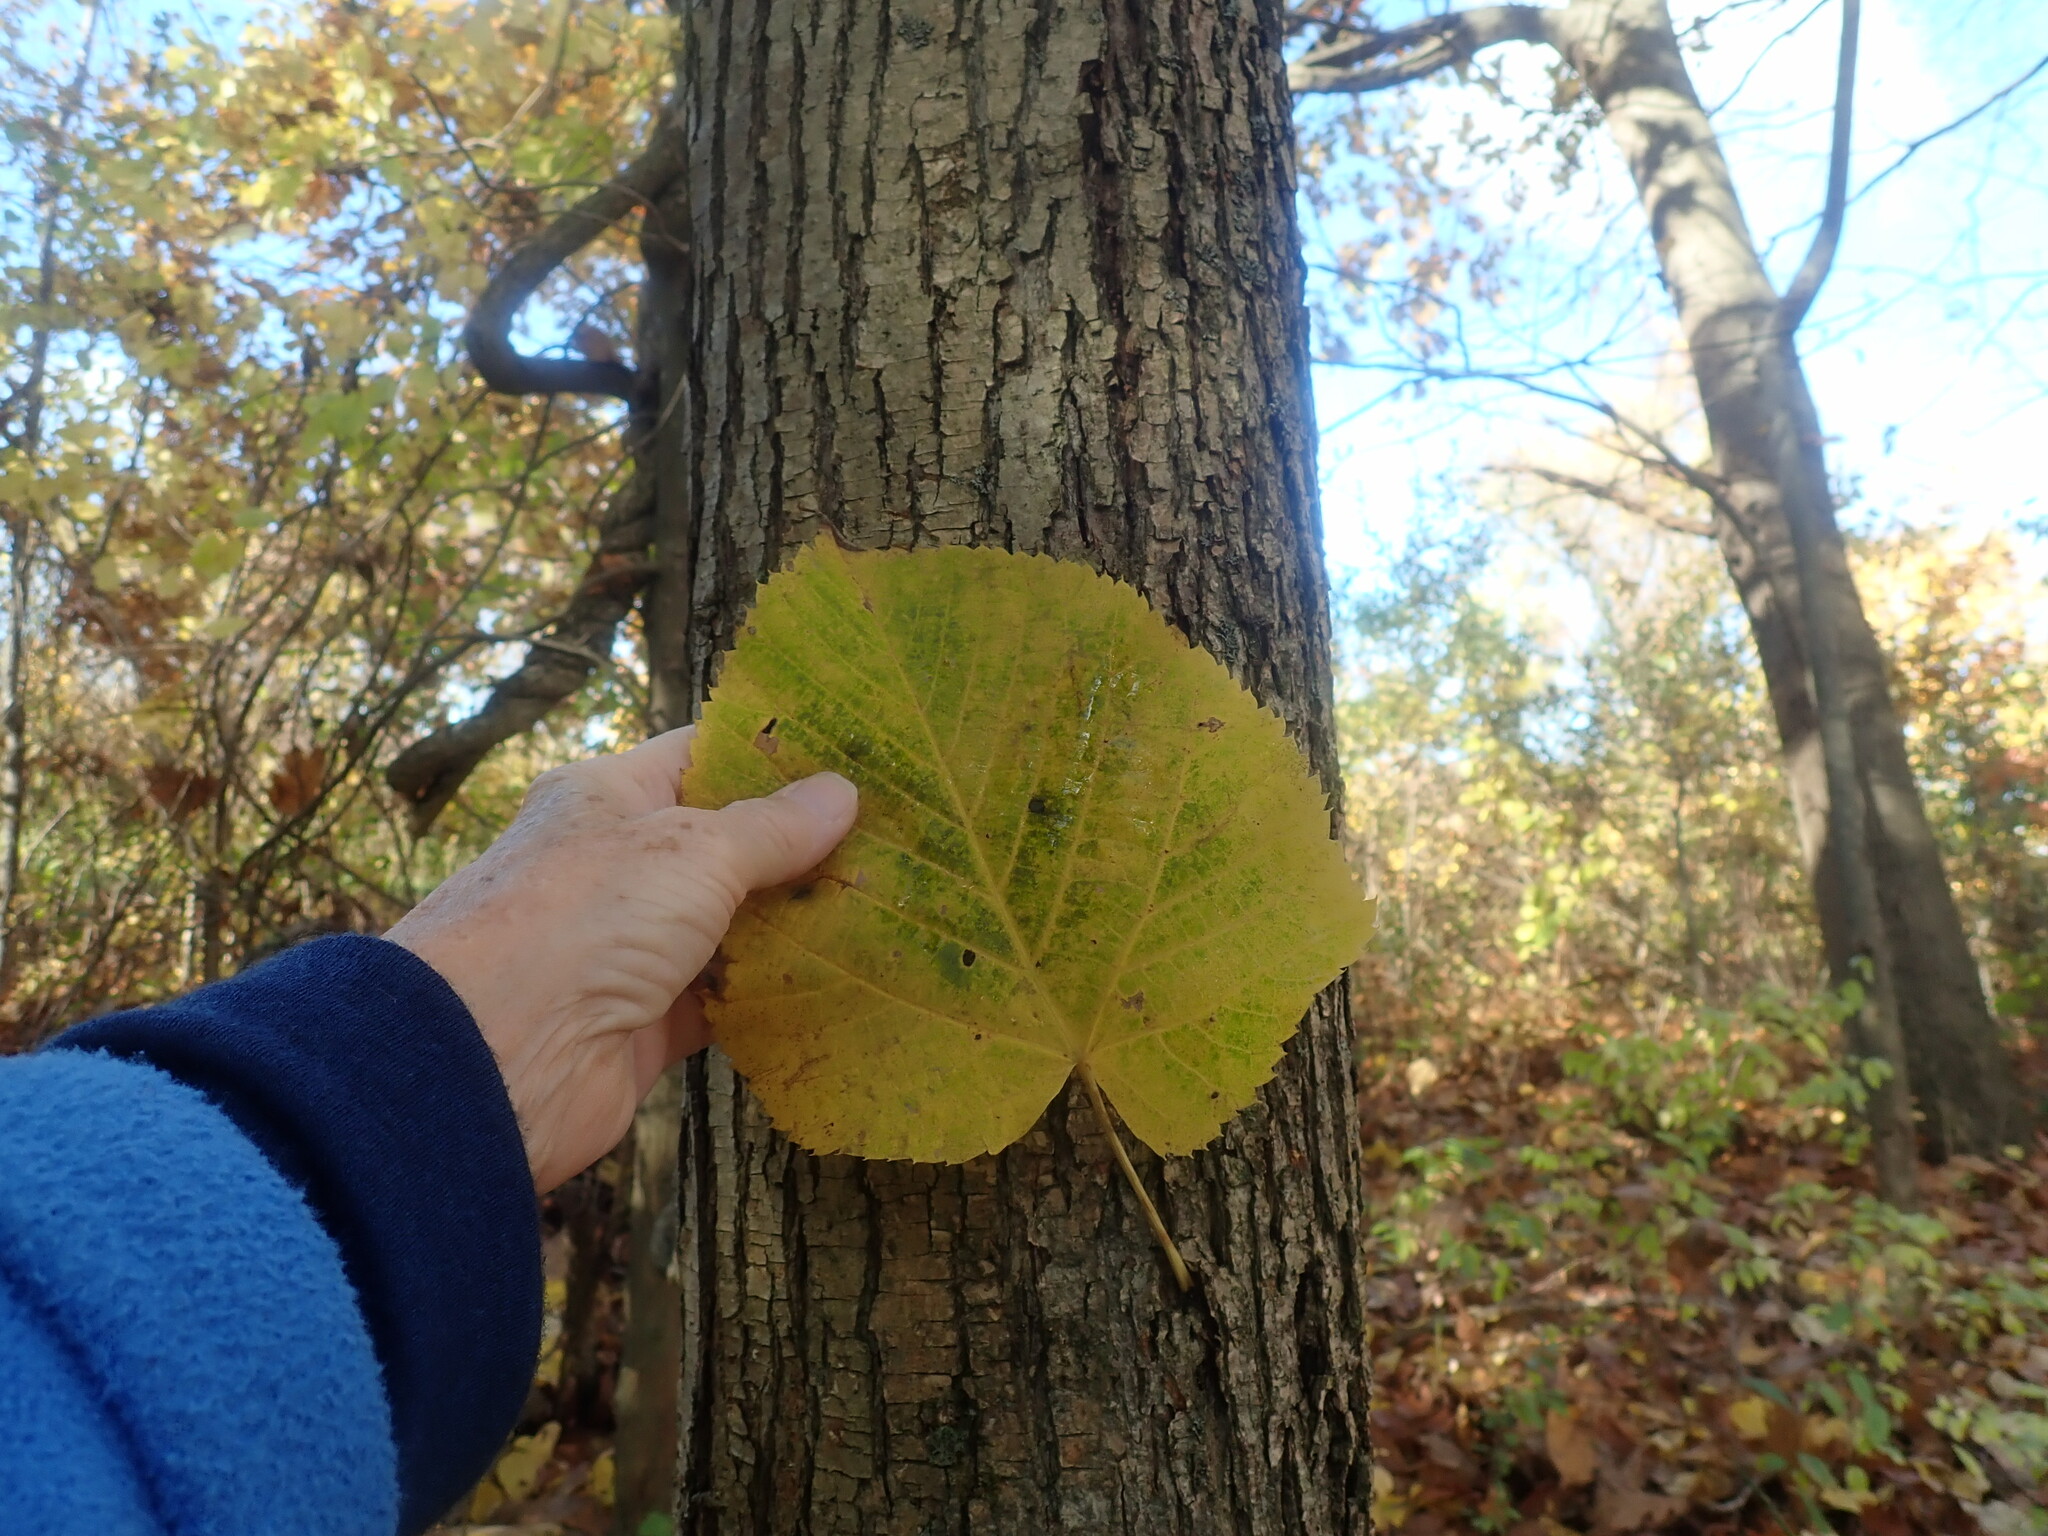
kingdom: Plantae
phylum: Tracheophyta
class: Magnoliopsida
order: Malvales
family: Malvaceae
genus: Tilia
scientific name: Tilia americana
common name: Basswood
